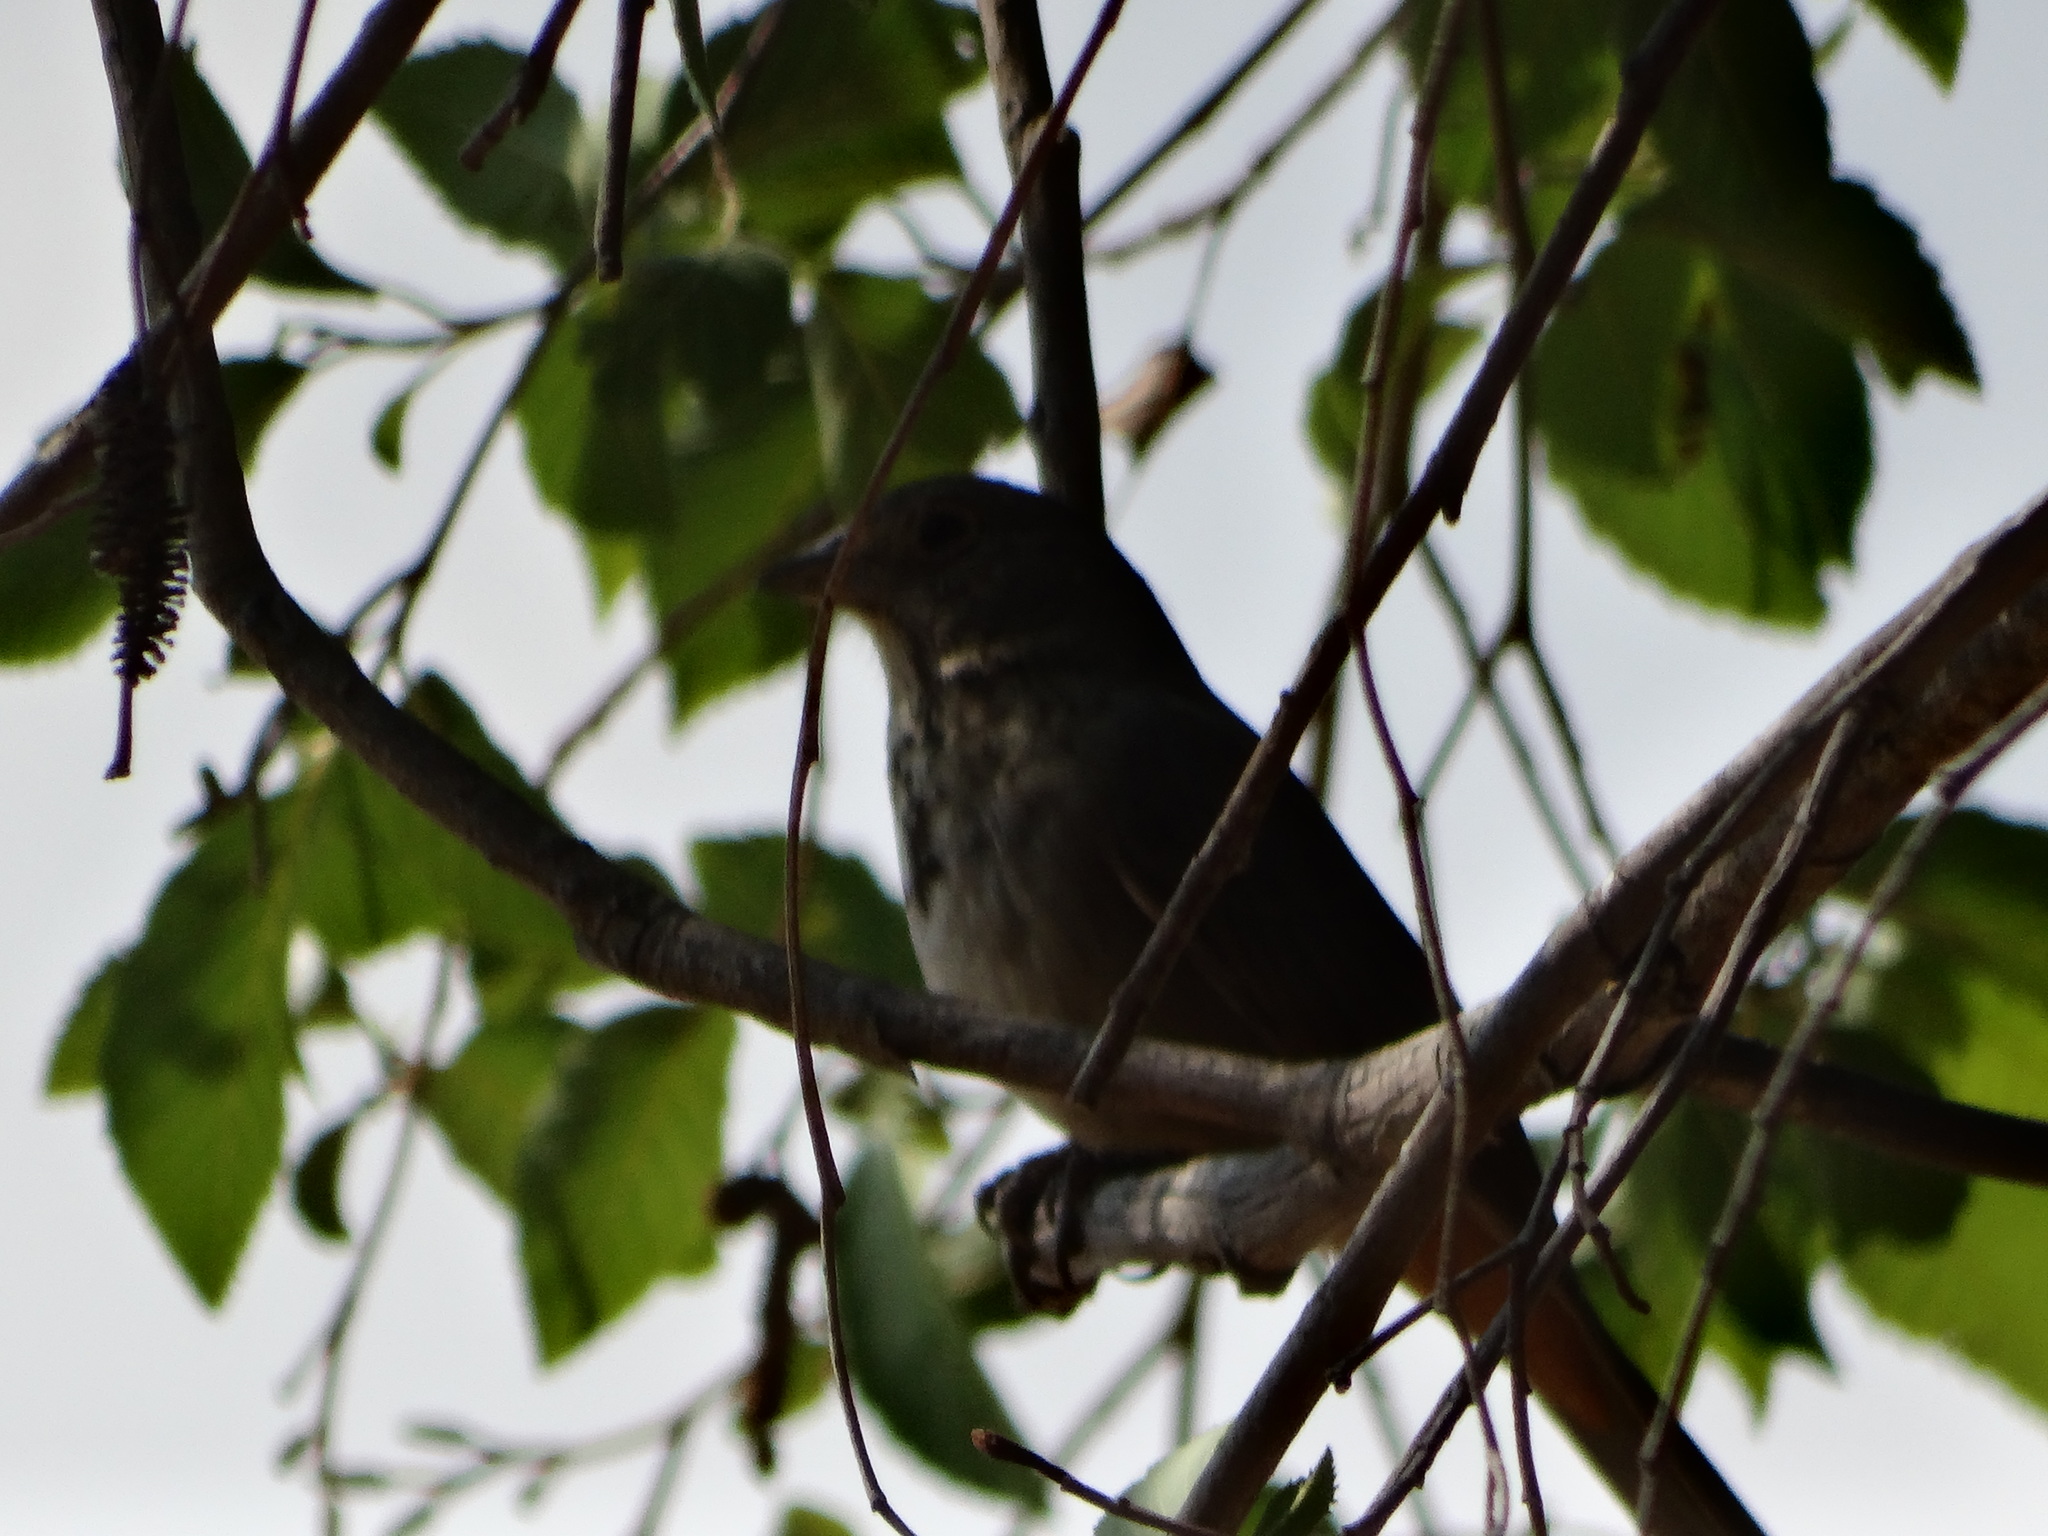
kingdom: Animalia
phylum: Chordata
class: Aves
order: Passeriformes
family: Passerellidae
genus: Melozone
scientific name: Melozone fusca
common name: Canyon towhee
